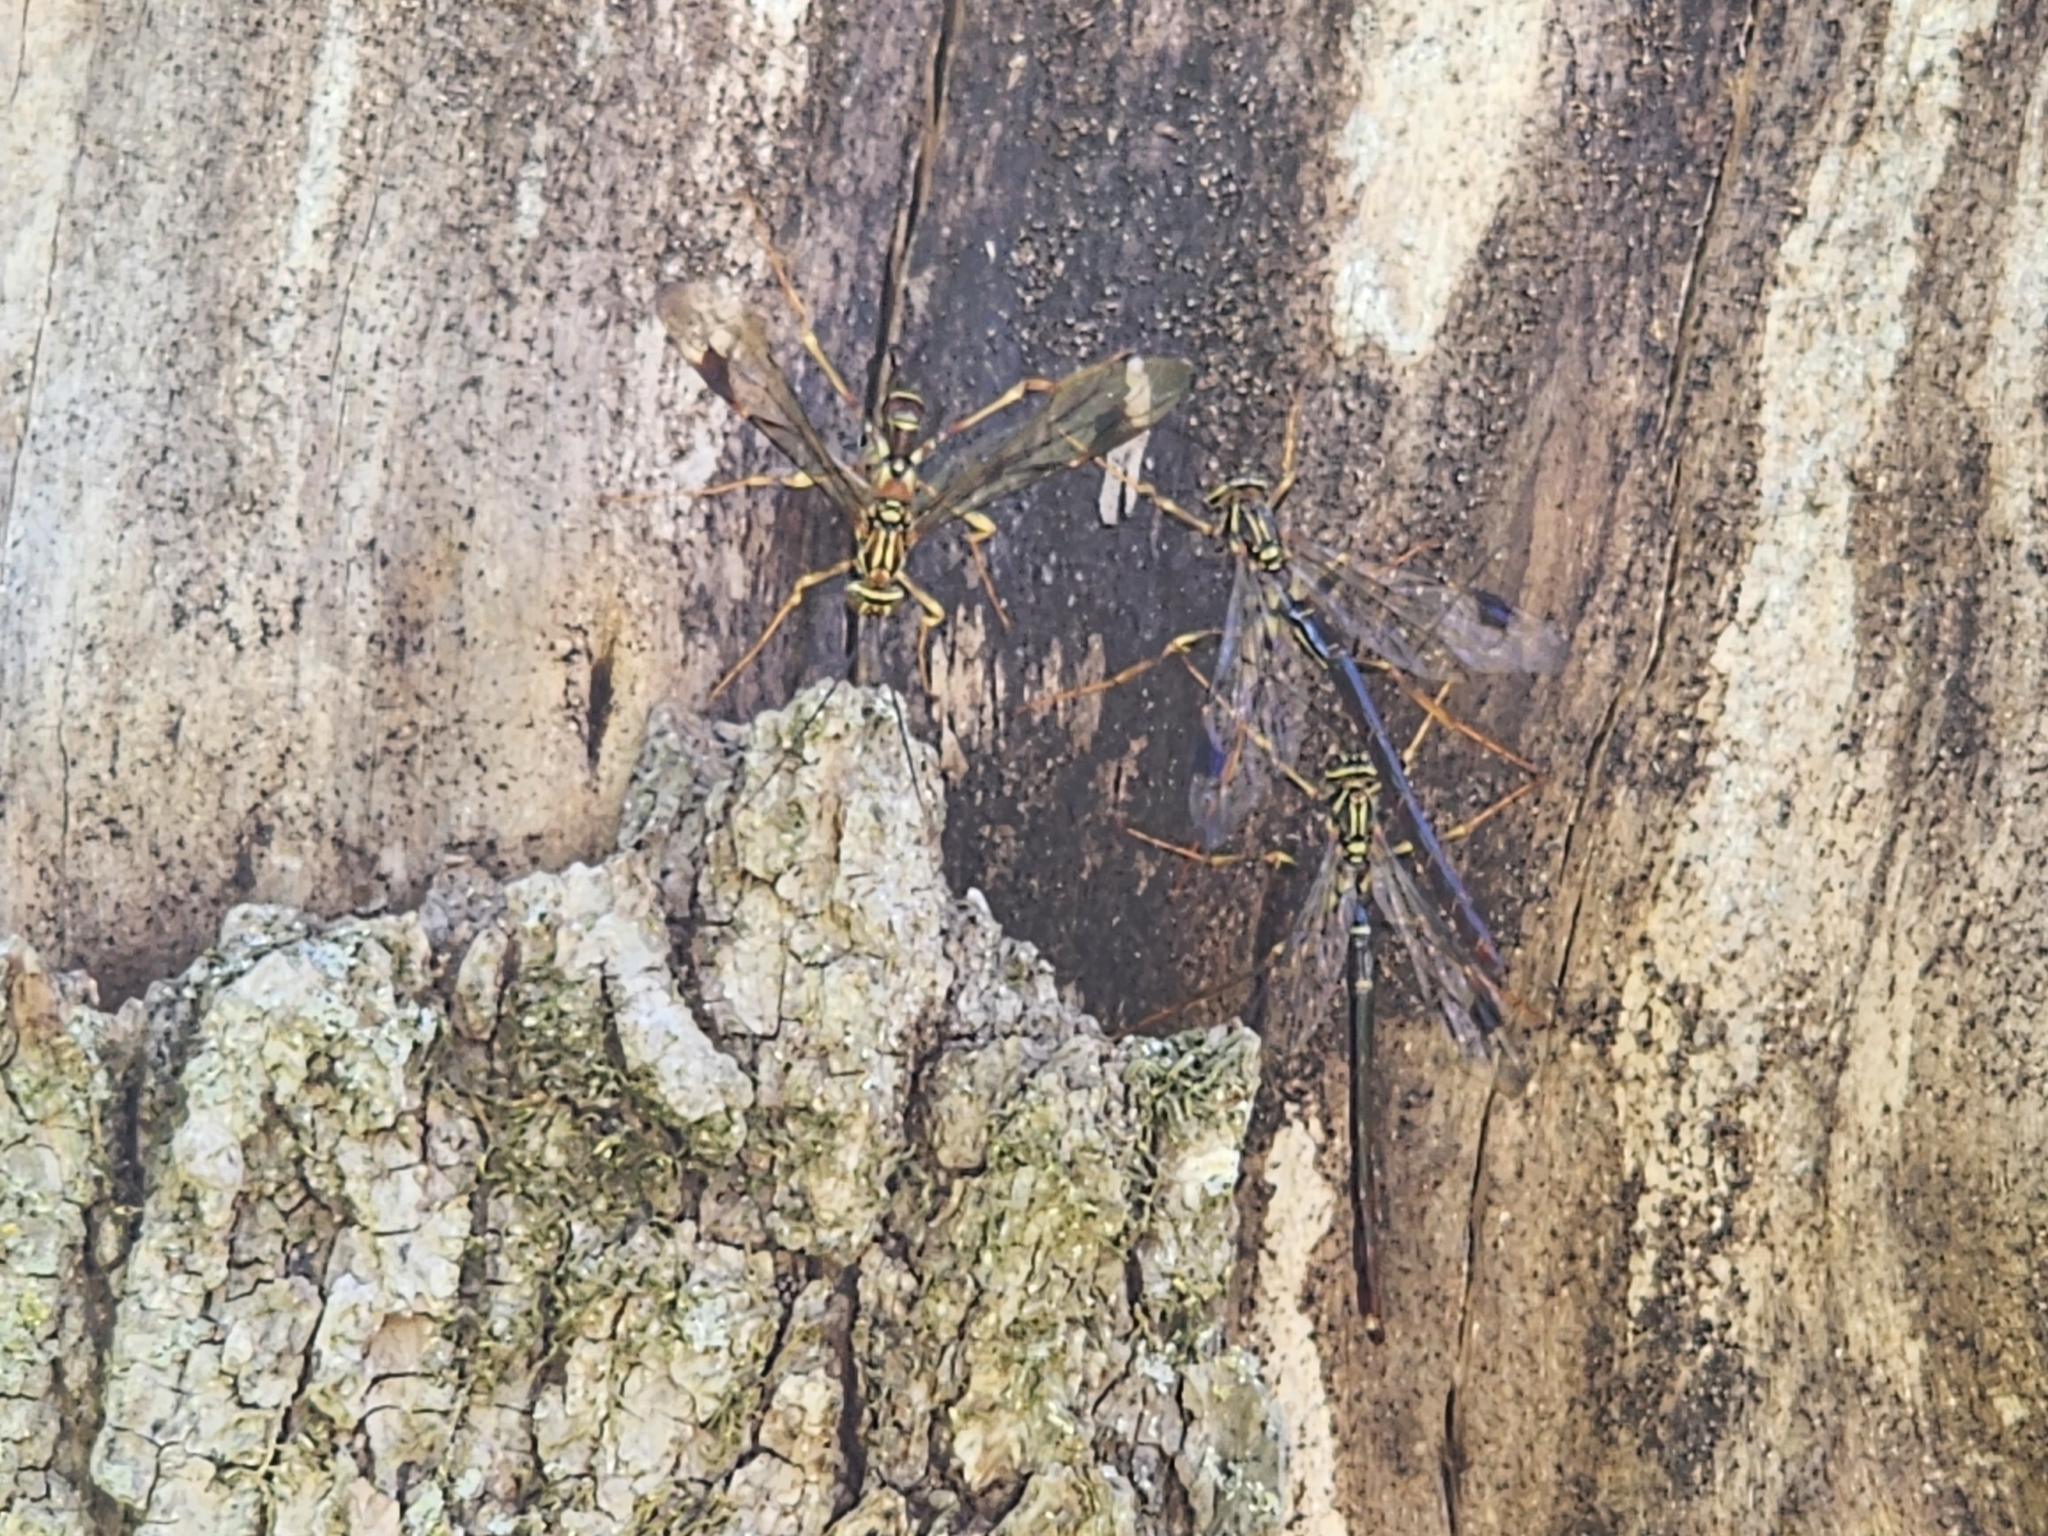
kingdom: Animalia
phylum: Arthropoda
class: Insecta
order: Hymenoptera
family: Ichneumonidae
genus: Megarhyssa
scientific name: Megarhyssa macrura
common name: Long-tailed giant ichneumonid wasp
